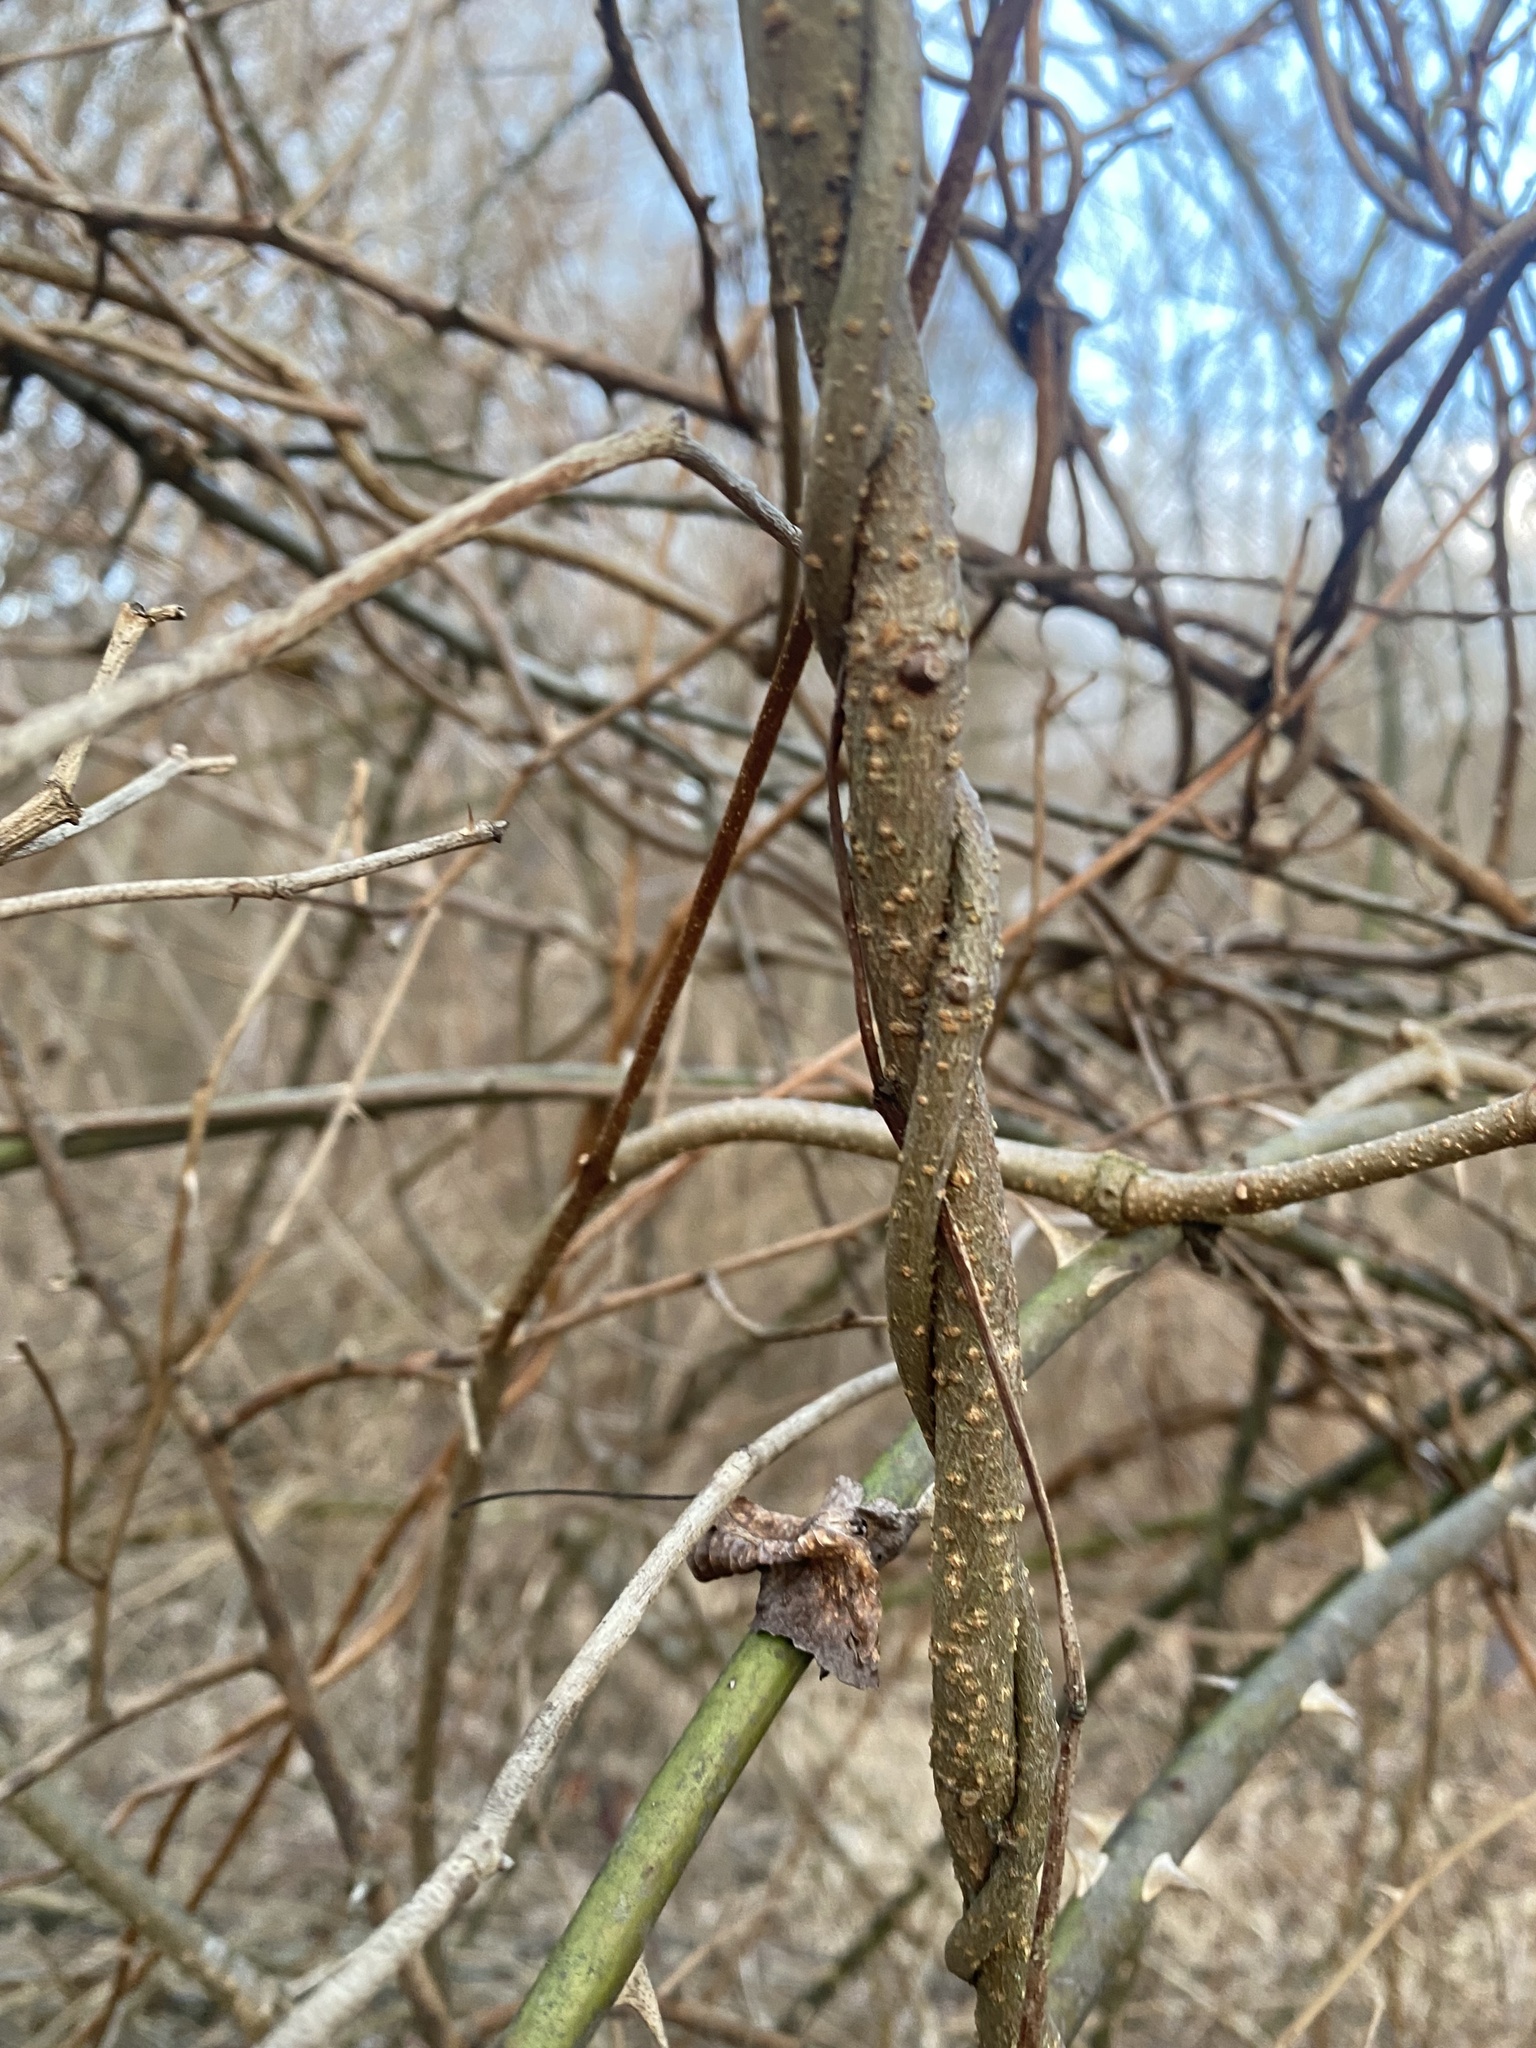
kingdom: Plantae
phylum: Tracheophyta
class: Magnoliopsida
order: Gentianales
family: Apocynaceae
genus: Periploca
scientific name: Periploca graeca
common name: Silkvine
